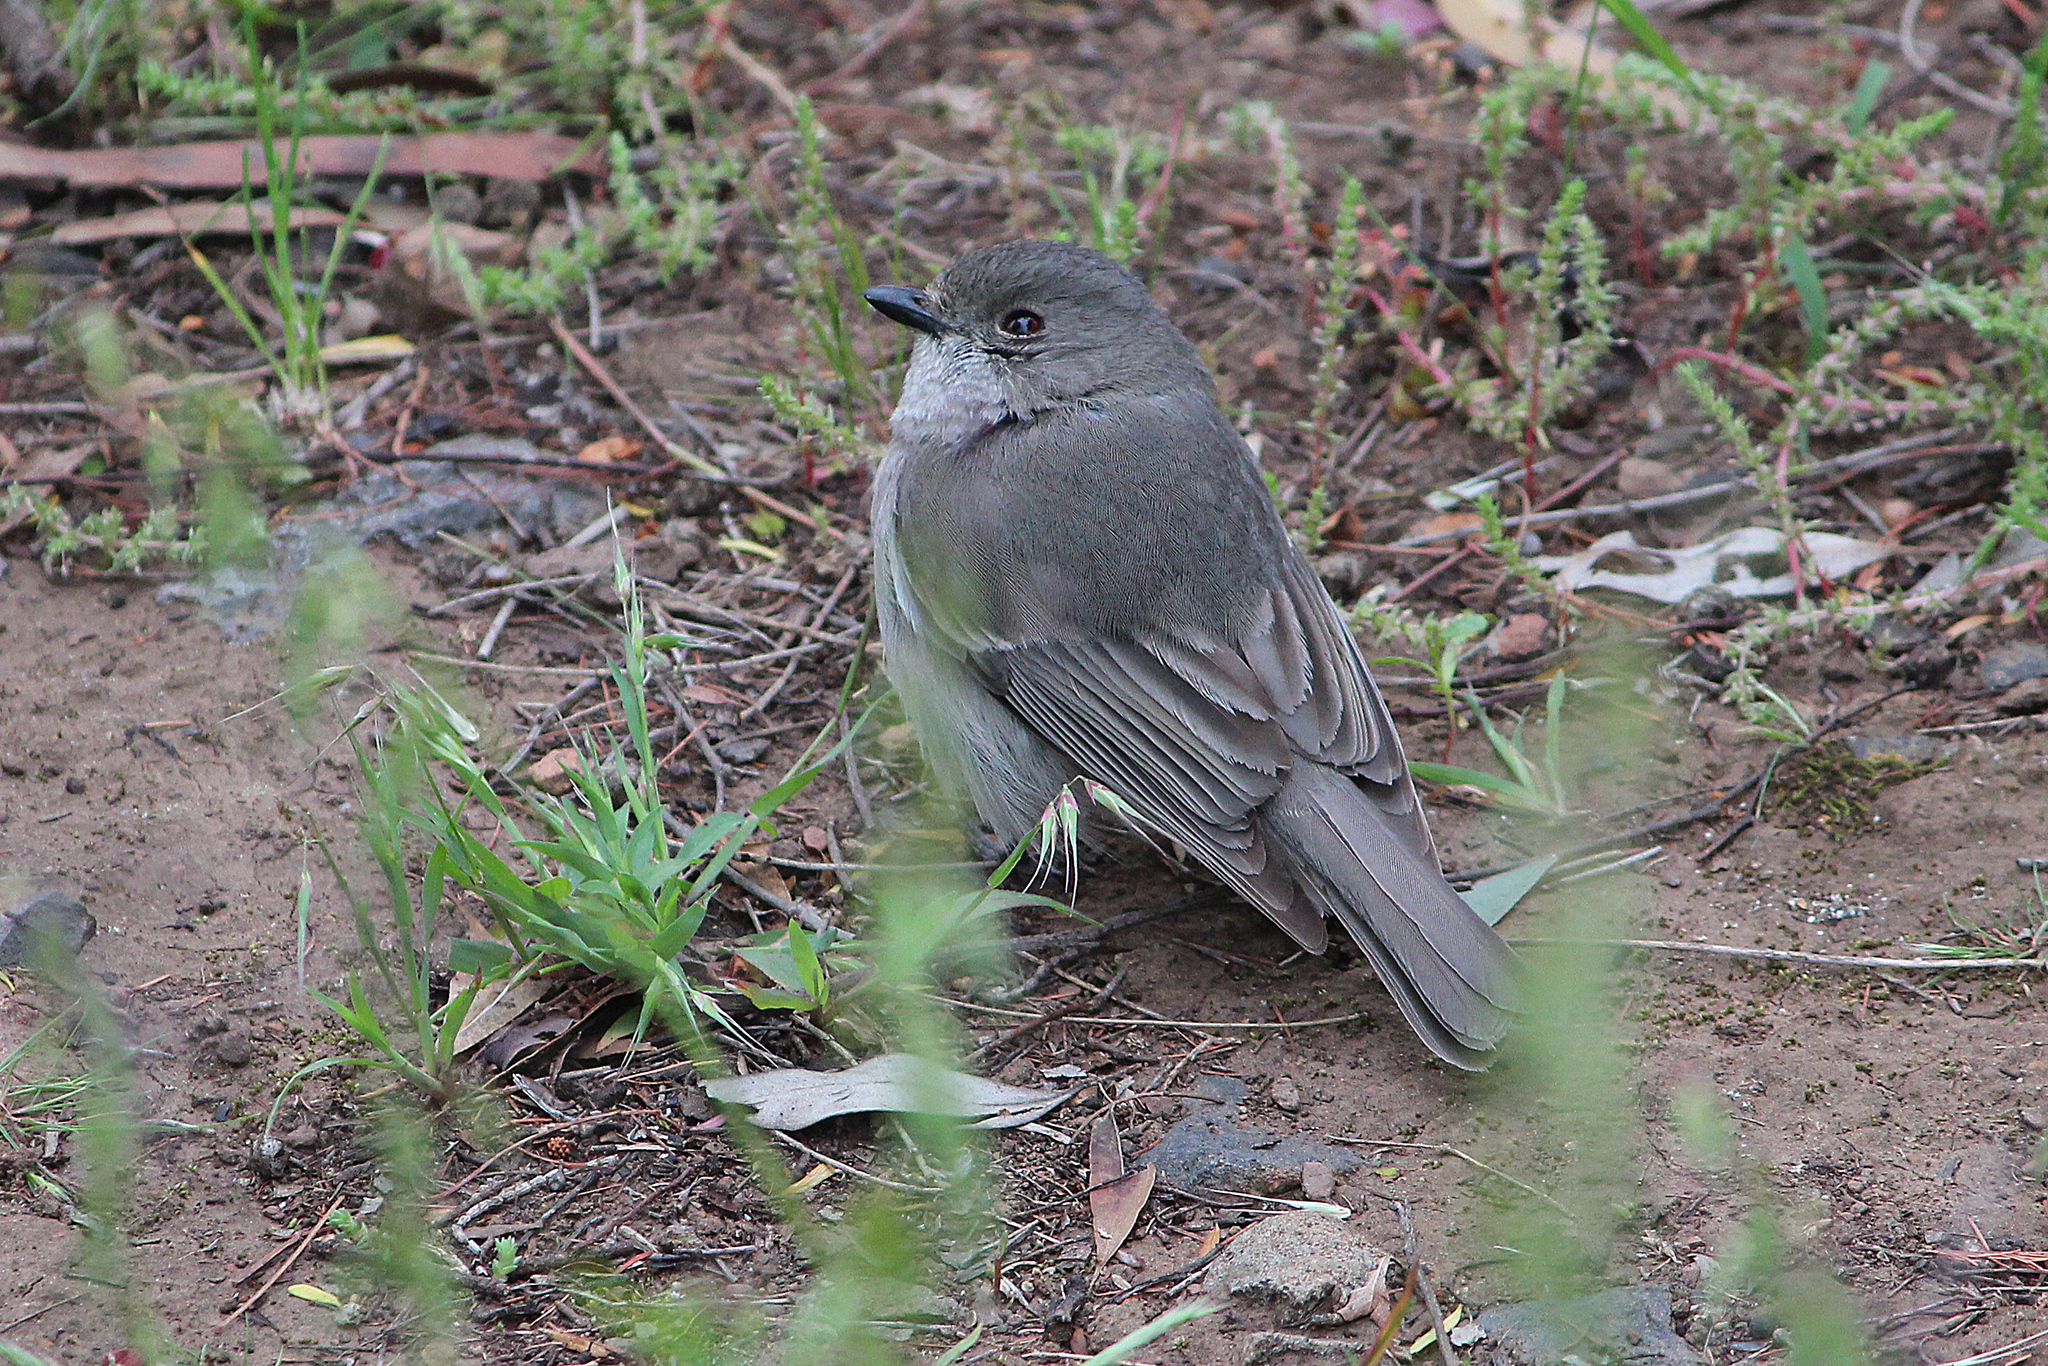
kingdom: Animalia
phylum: Chordata
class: Aves
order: Passeriformes
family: Pachycephalidae
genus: Pachycephala
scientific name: Pachycephala pectoralis
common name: Australian golden whistler
